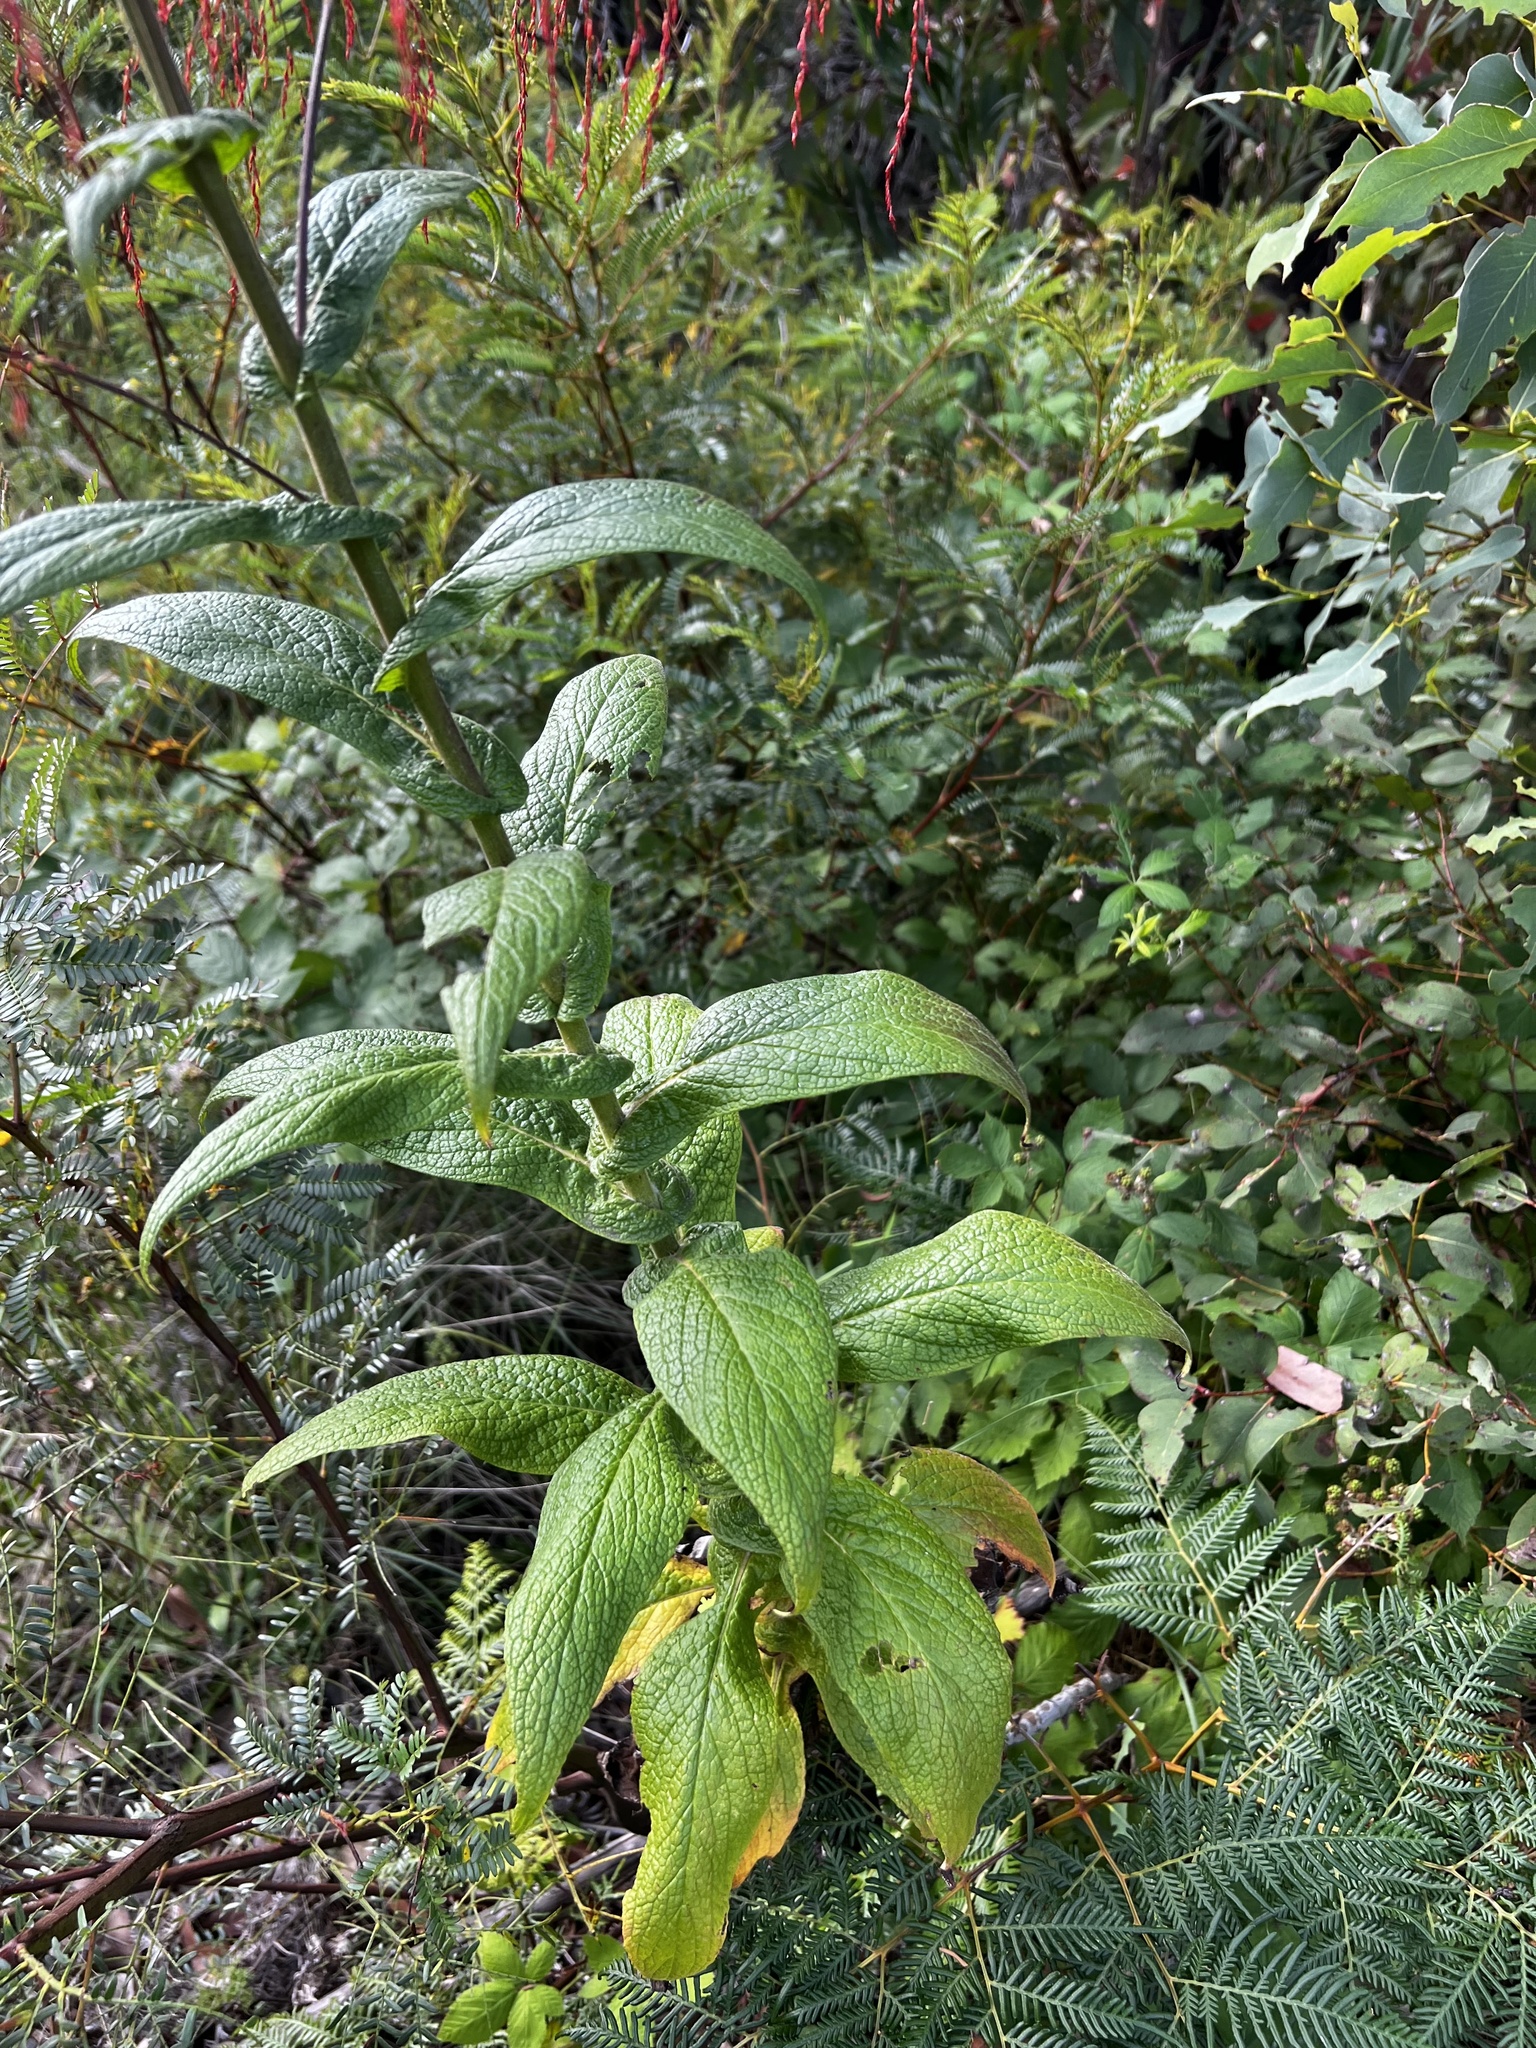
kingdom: Plantae
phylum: Tracheophyta
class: Magnoliopsida
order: Asterales
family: Asteraceae
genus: Calomeria
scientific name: Calomeria amaranthoides
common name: Incenseplant
